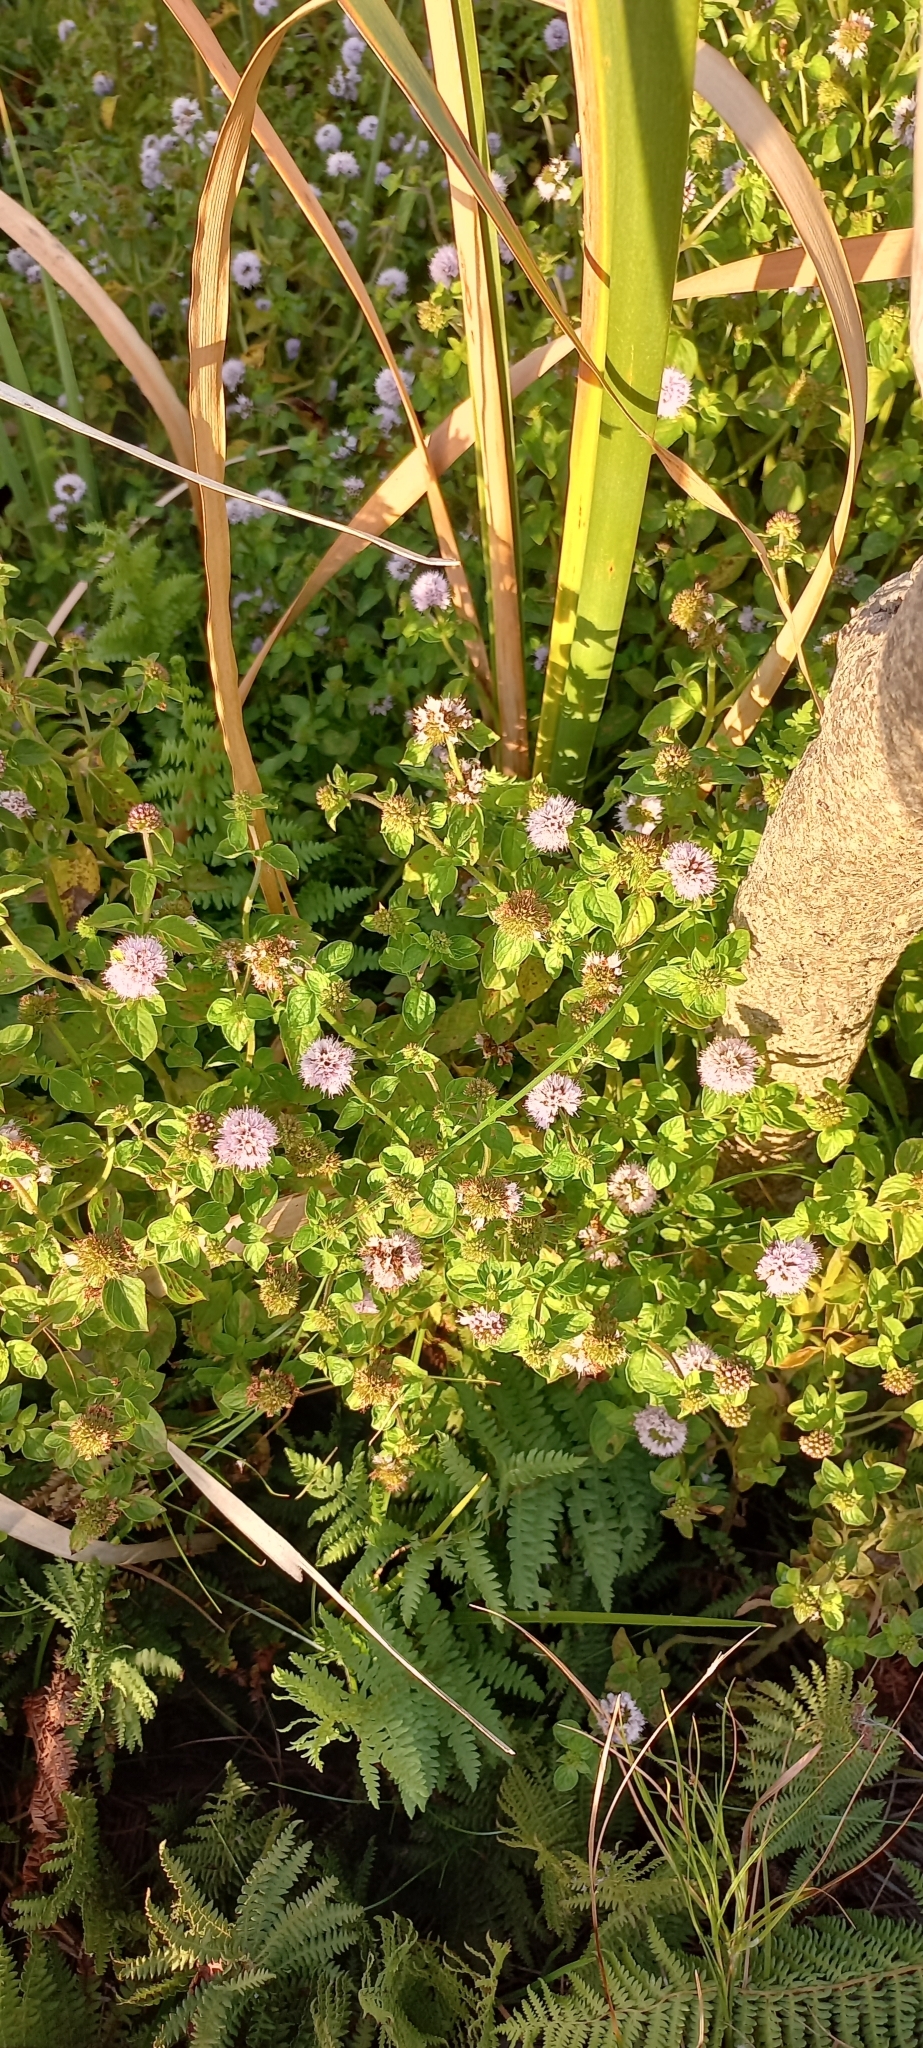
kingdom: Plantae
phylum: Tracheophyta
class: Magnoliopsida
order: Lamiales
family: Lamiaceae
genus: Mentha
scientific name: Mentha aquatica
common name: Water mint
